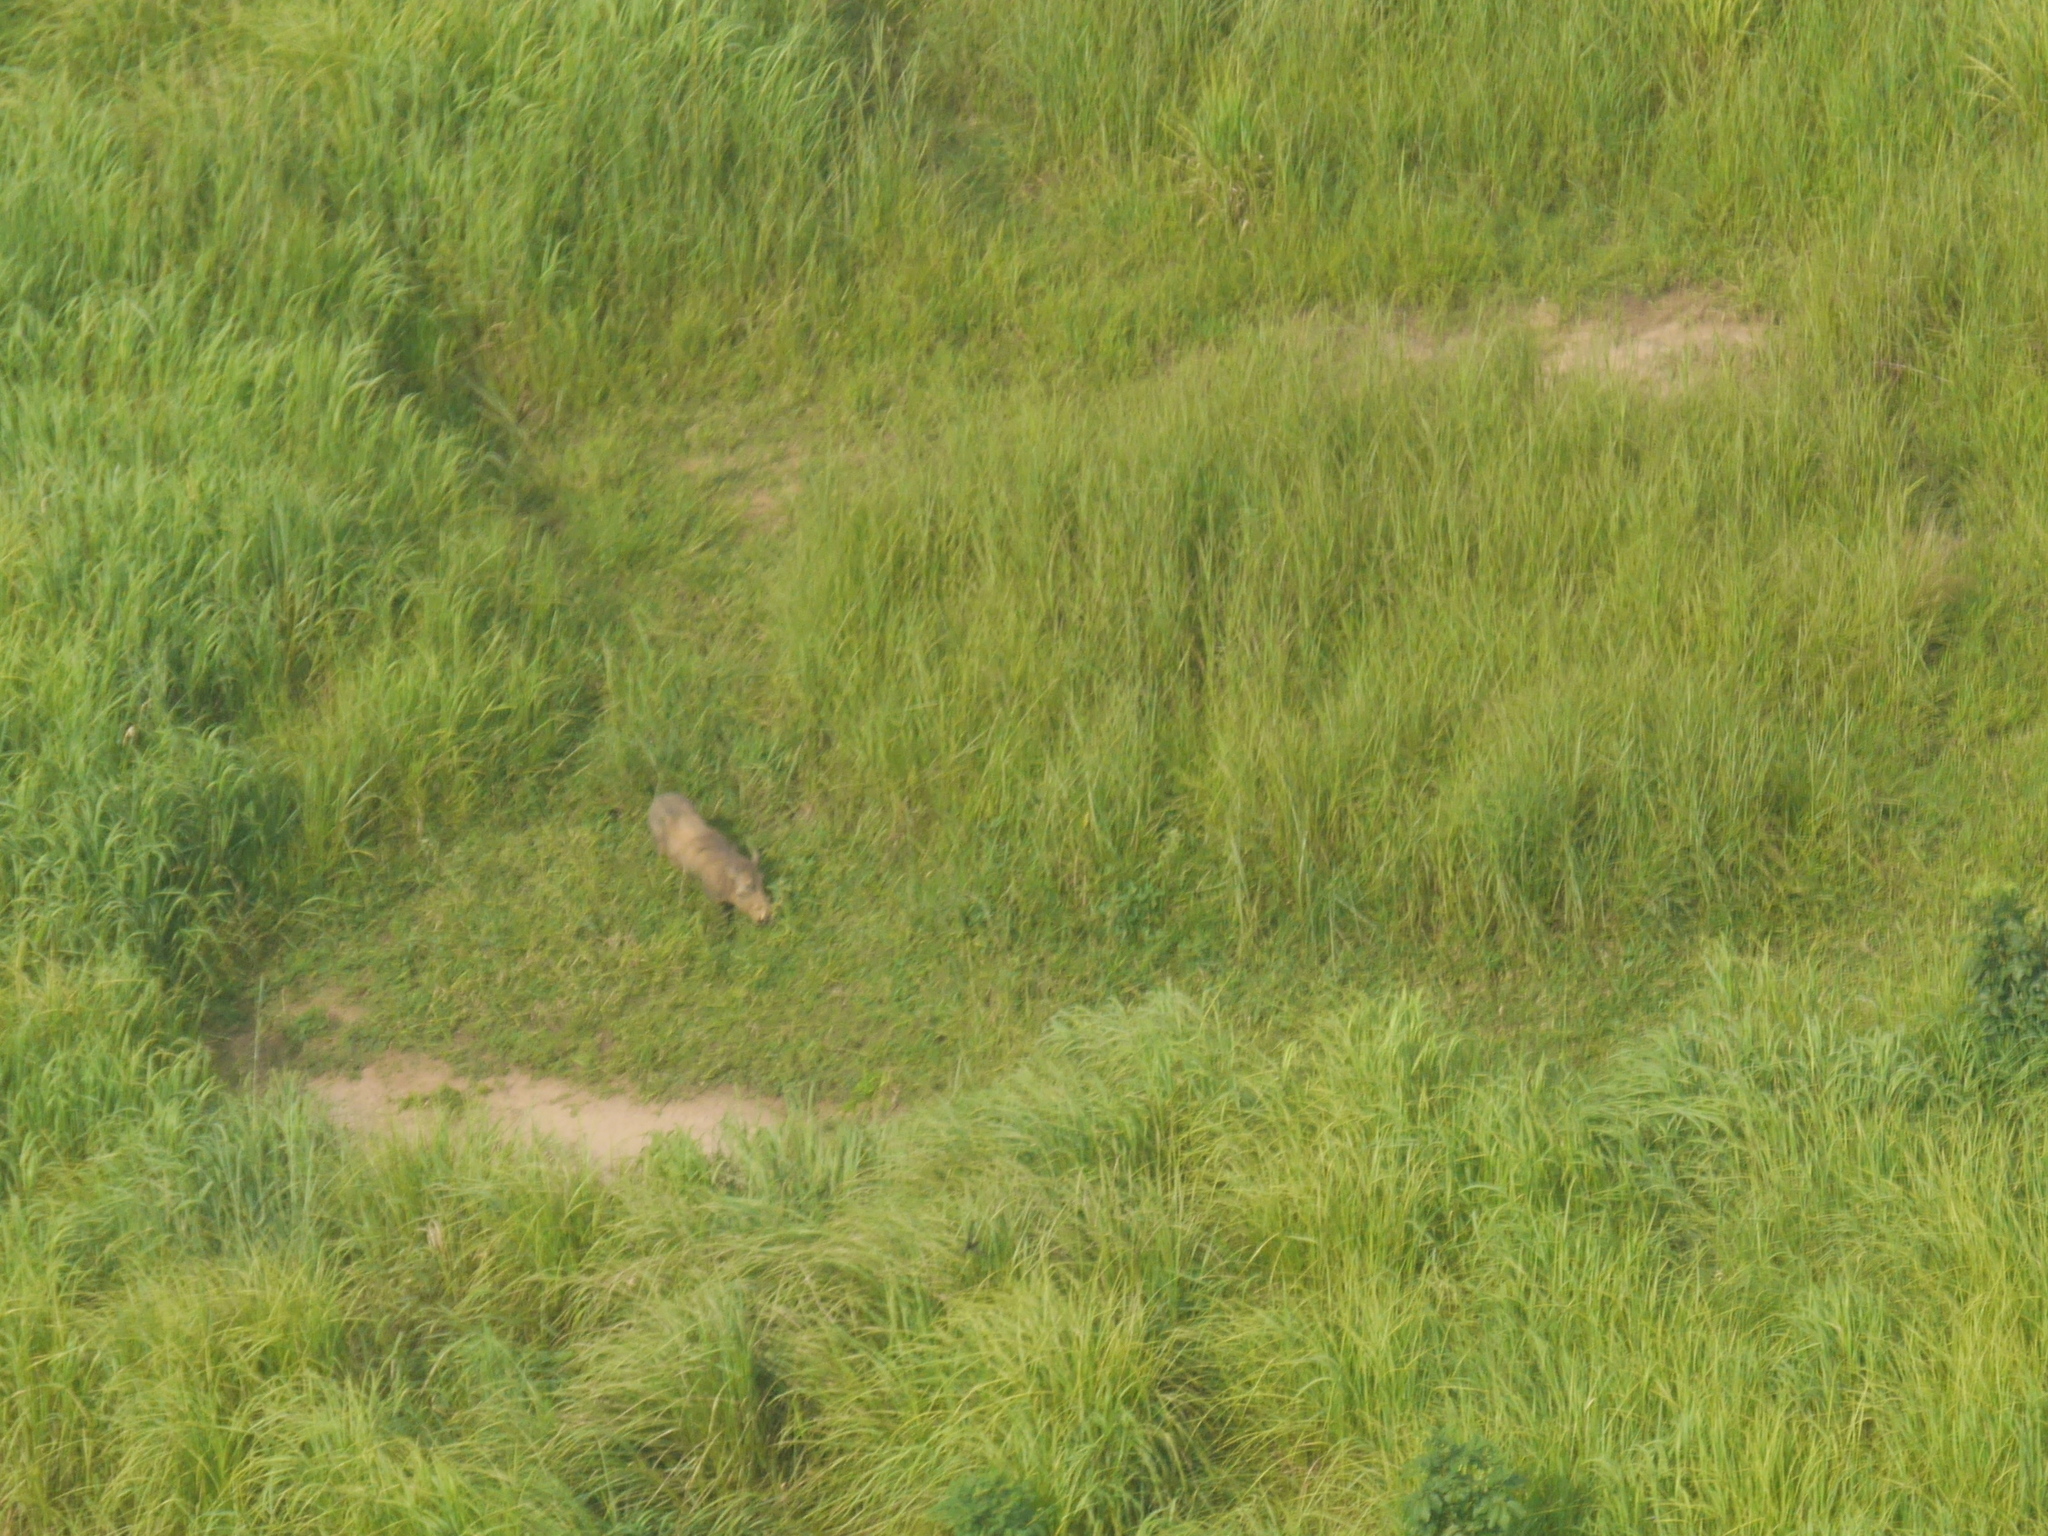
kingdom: Animalia
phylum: Chordata
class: Mammalia
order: Artiodactyla
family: Suidae
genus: Phacochoerus
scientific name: Phacochoerus africanus
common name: Common warthog
